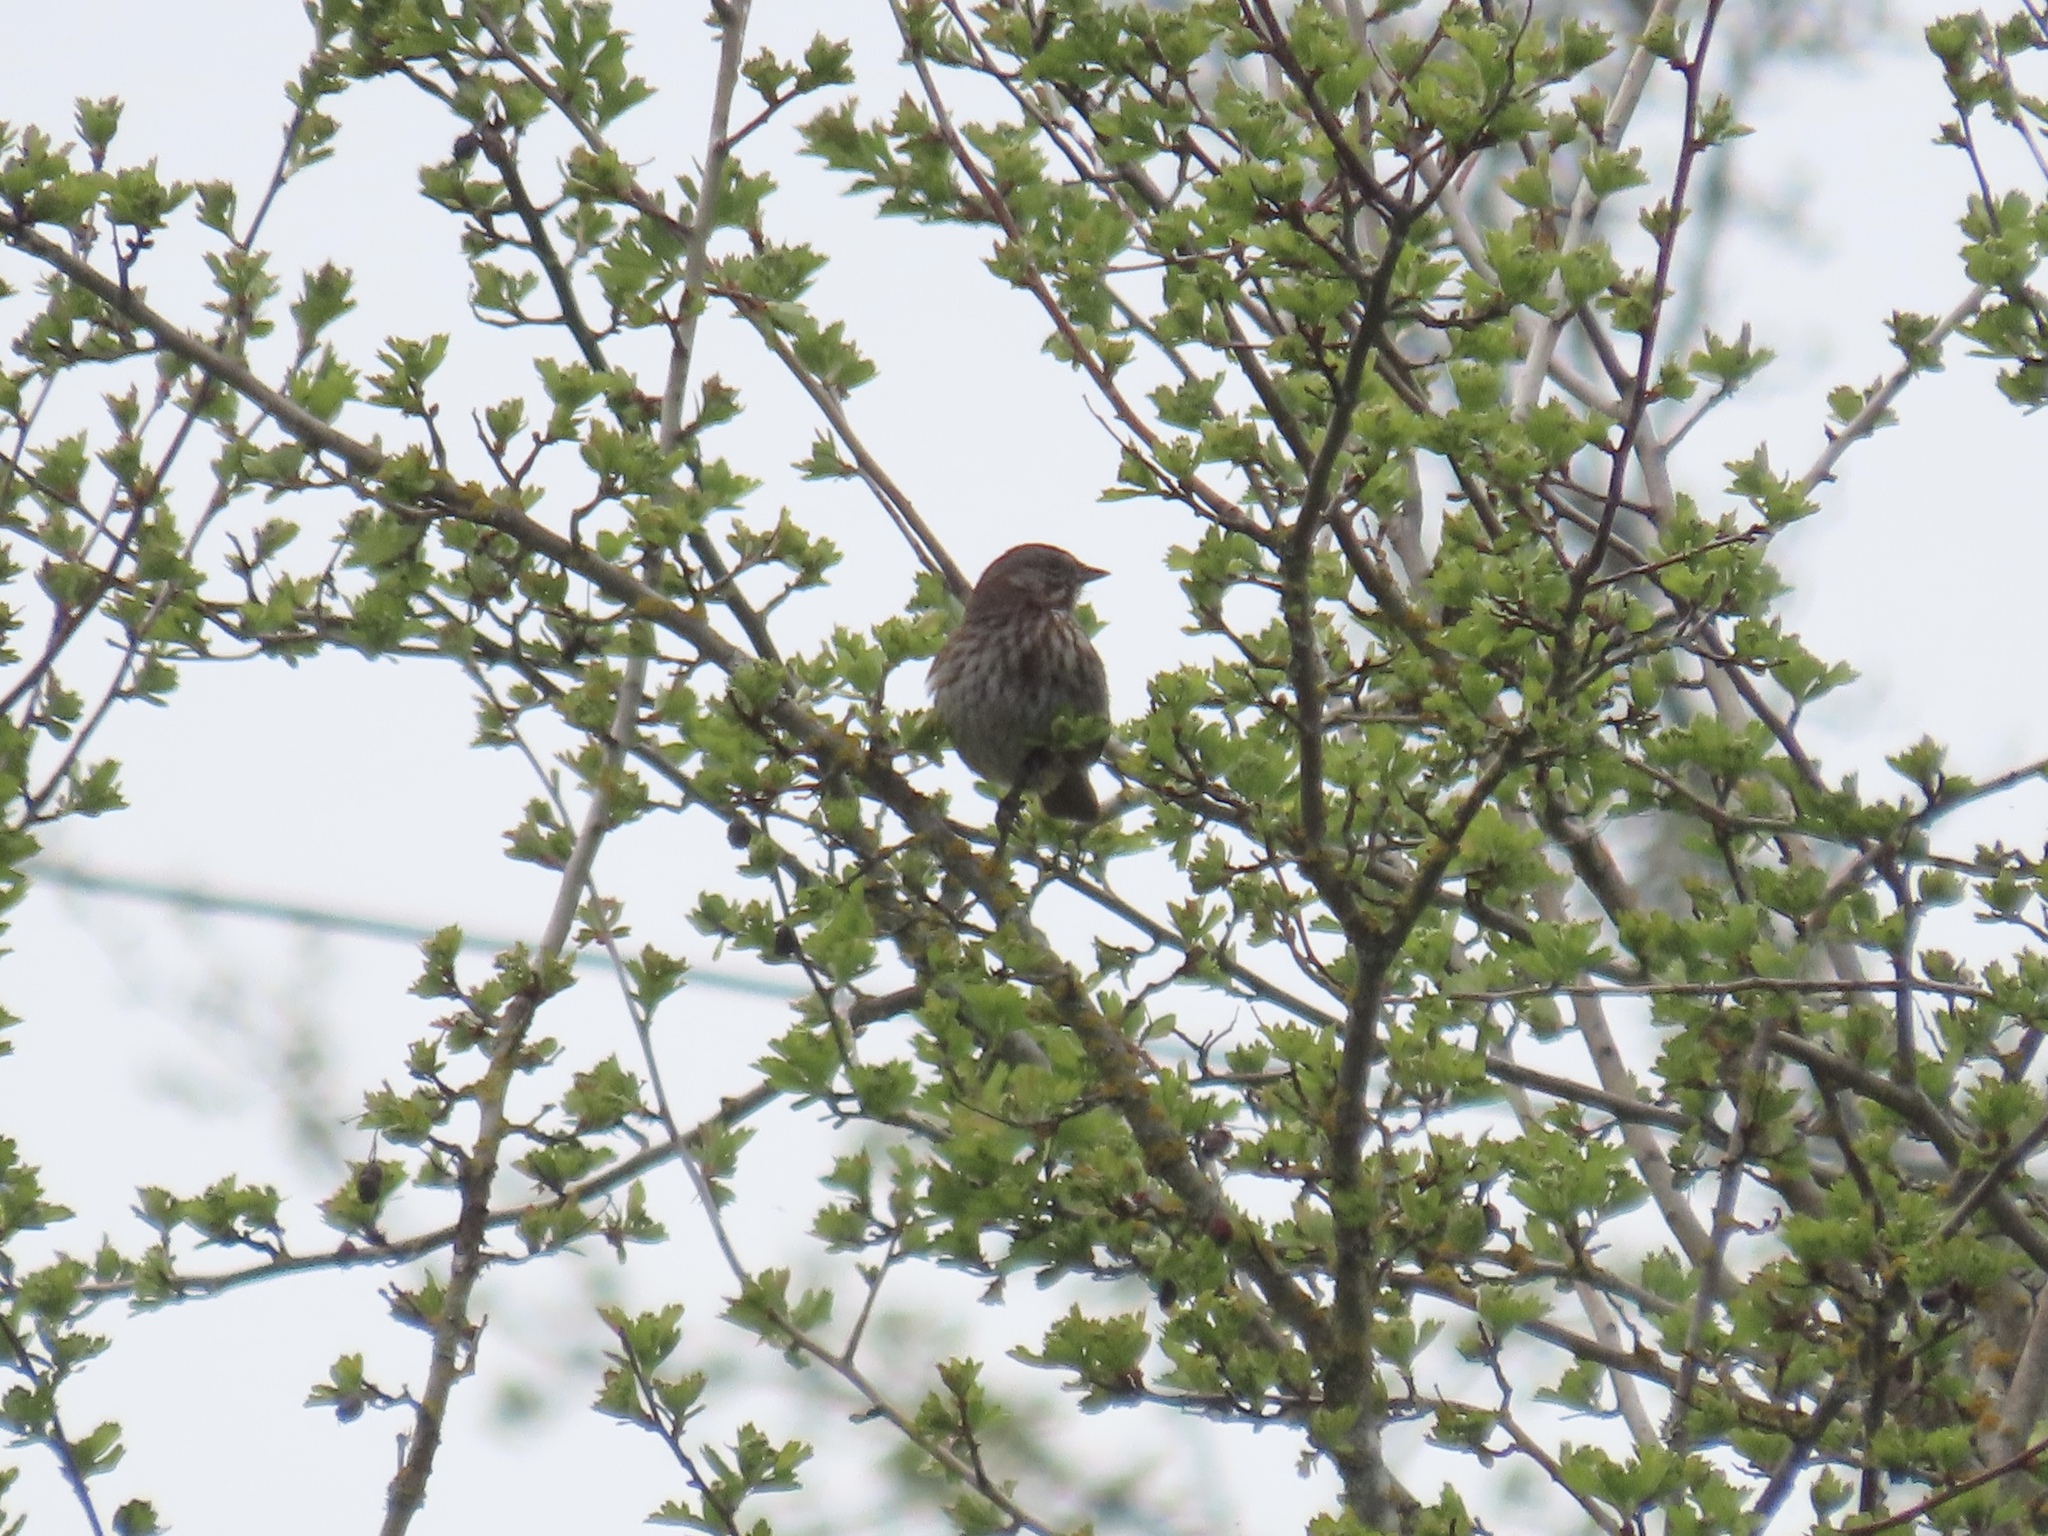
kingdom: Animalia
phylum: Chordata
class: Aves
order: Passeriformes
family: Passerellidae
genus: Melospiza
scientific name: Melospiza melodia
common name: Song sparrow
